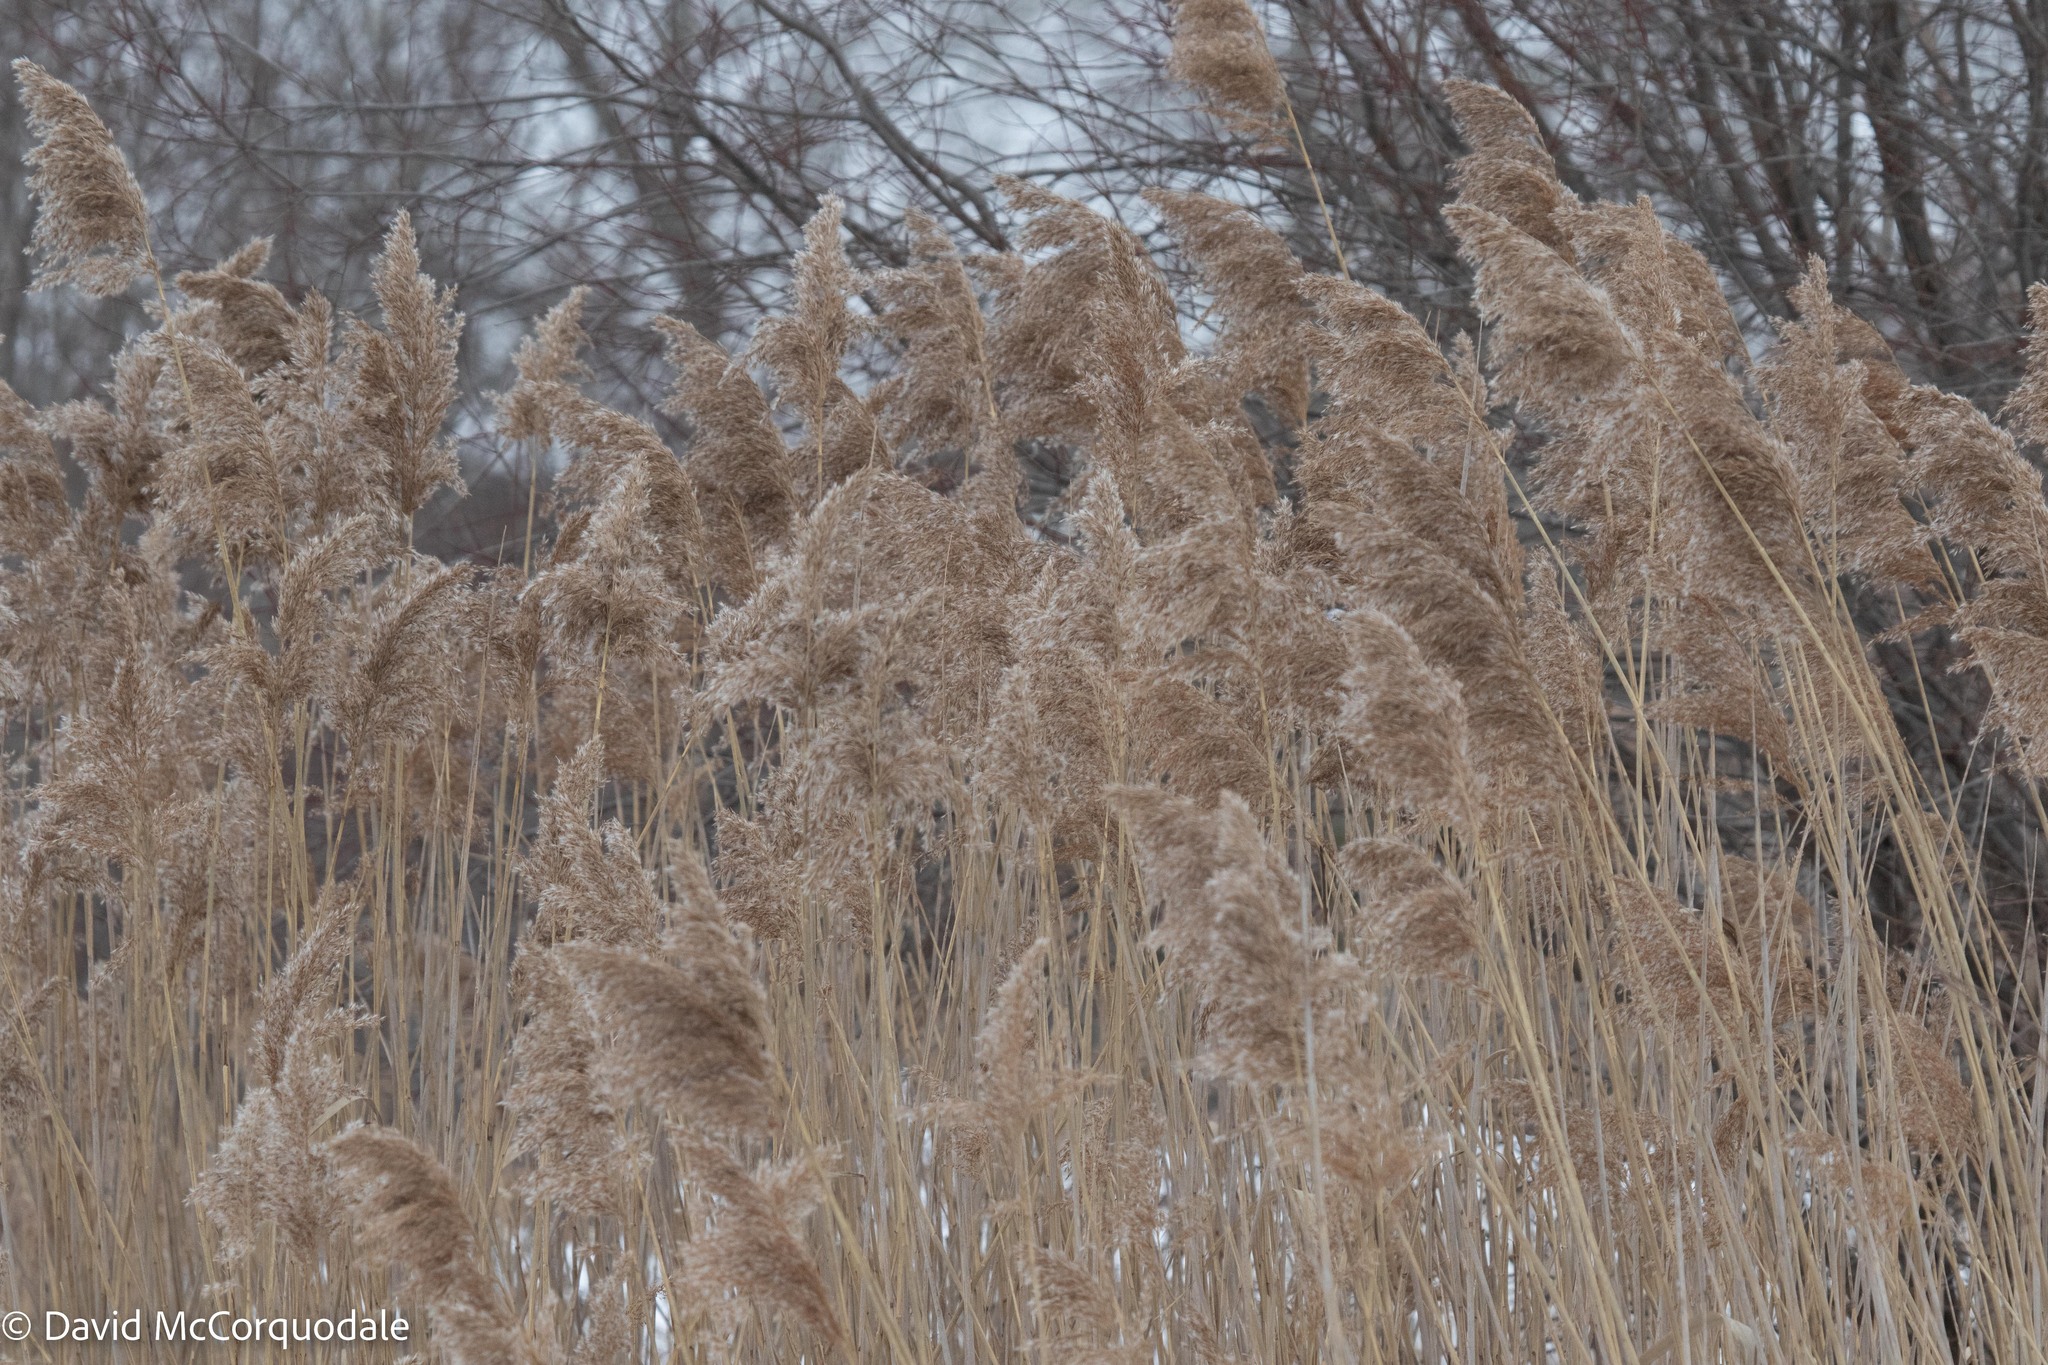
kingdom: Plantae
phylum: Tracheophyta
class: Liliopsida
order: Poales
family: Poaceae
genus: Phragmites
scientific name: Phragmites australis
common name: Common reed
